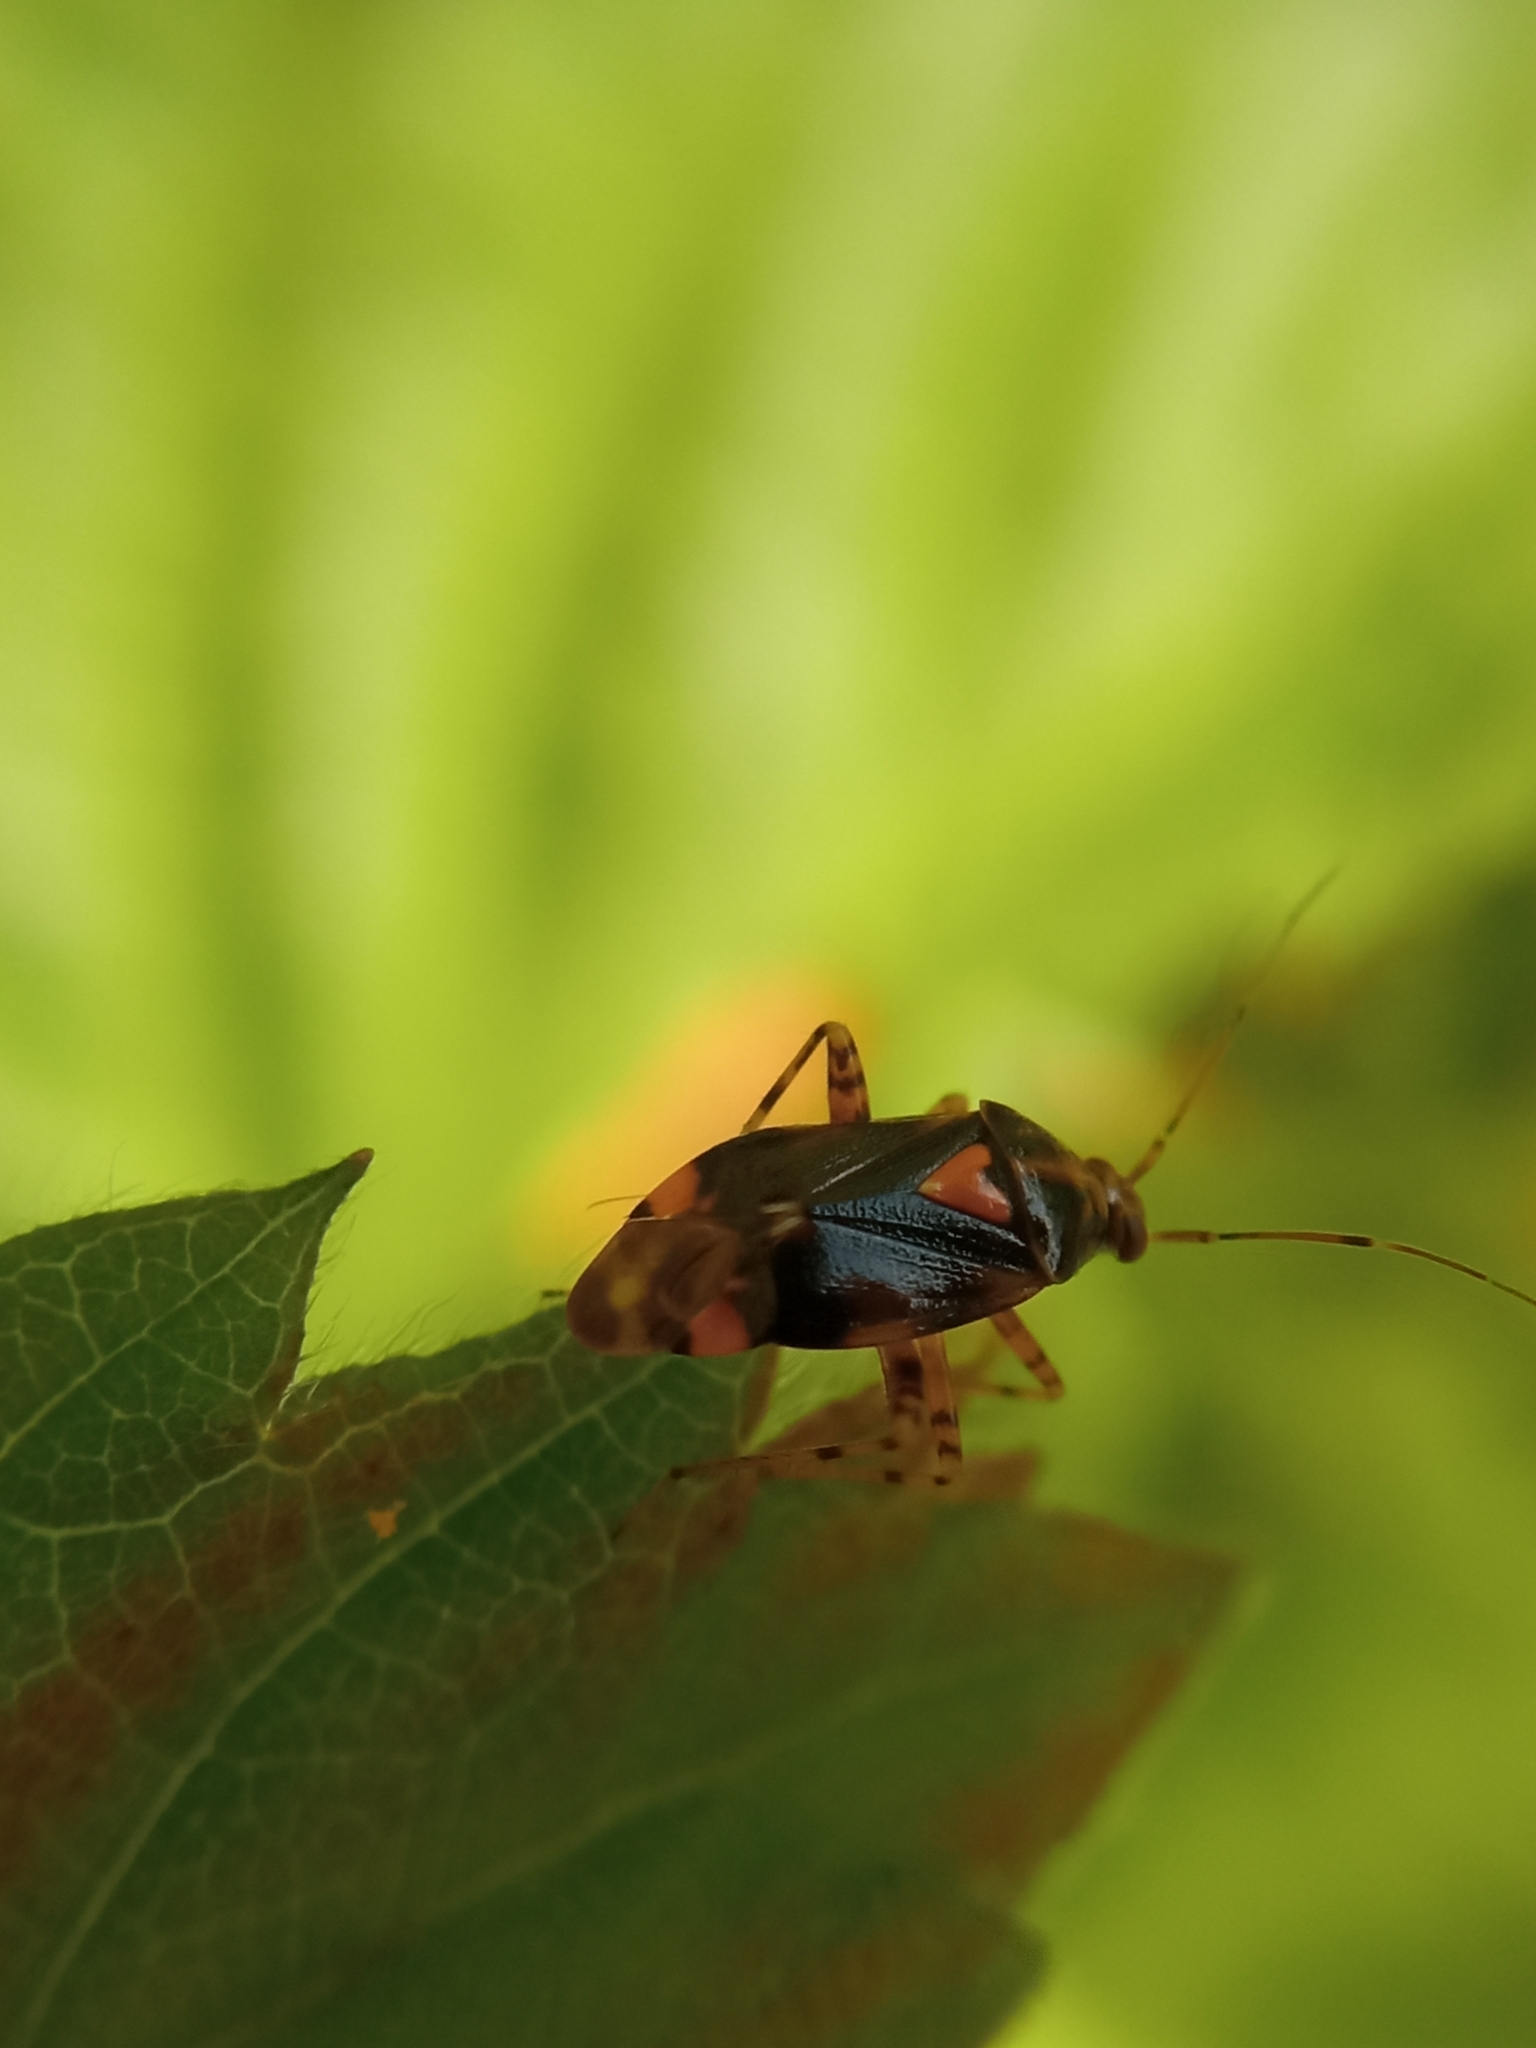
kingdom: Animalia
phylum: Arthropoda
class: Insecta
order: Hemiptera
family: Miridae
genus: Liocoris
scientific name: Liocoris tripustulatus
